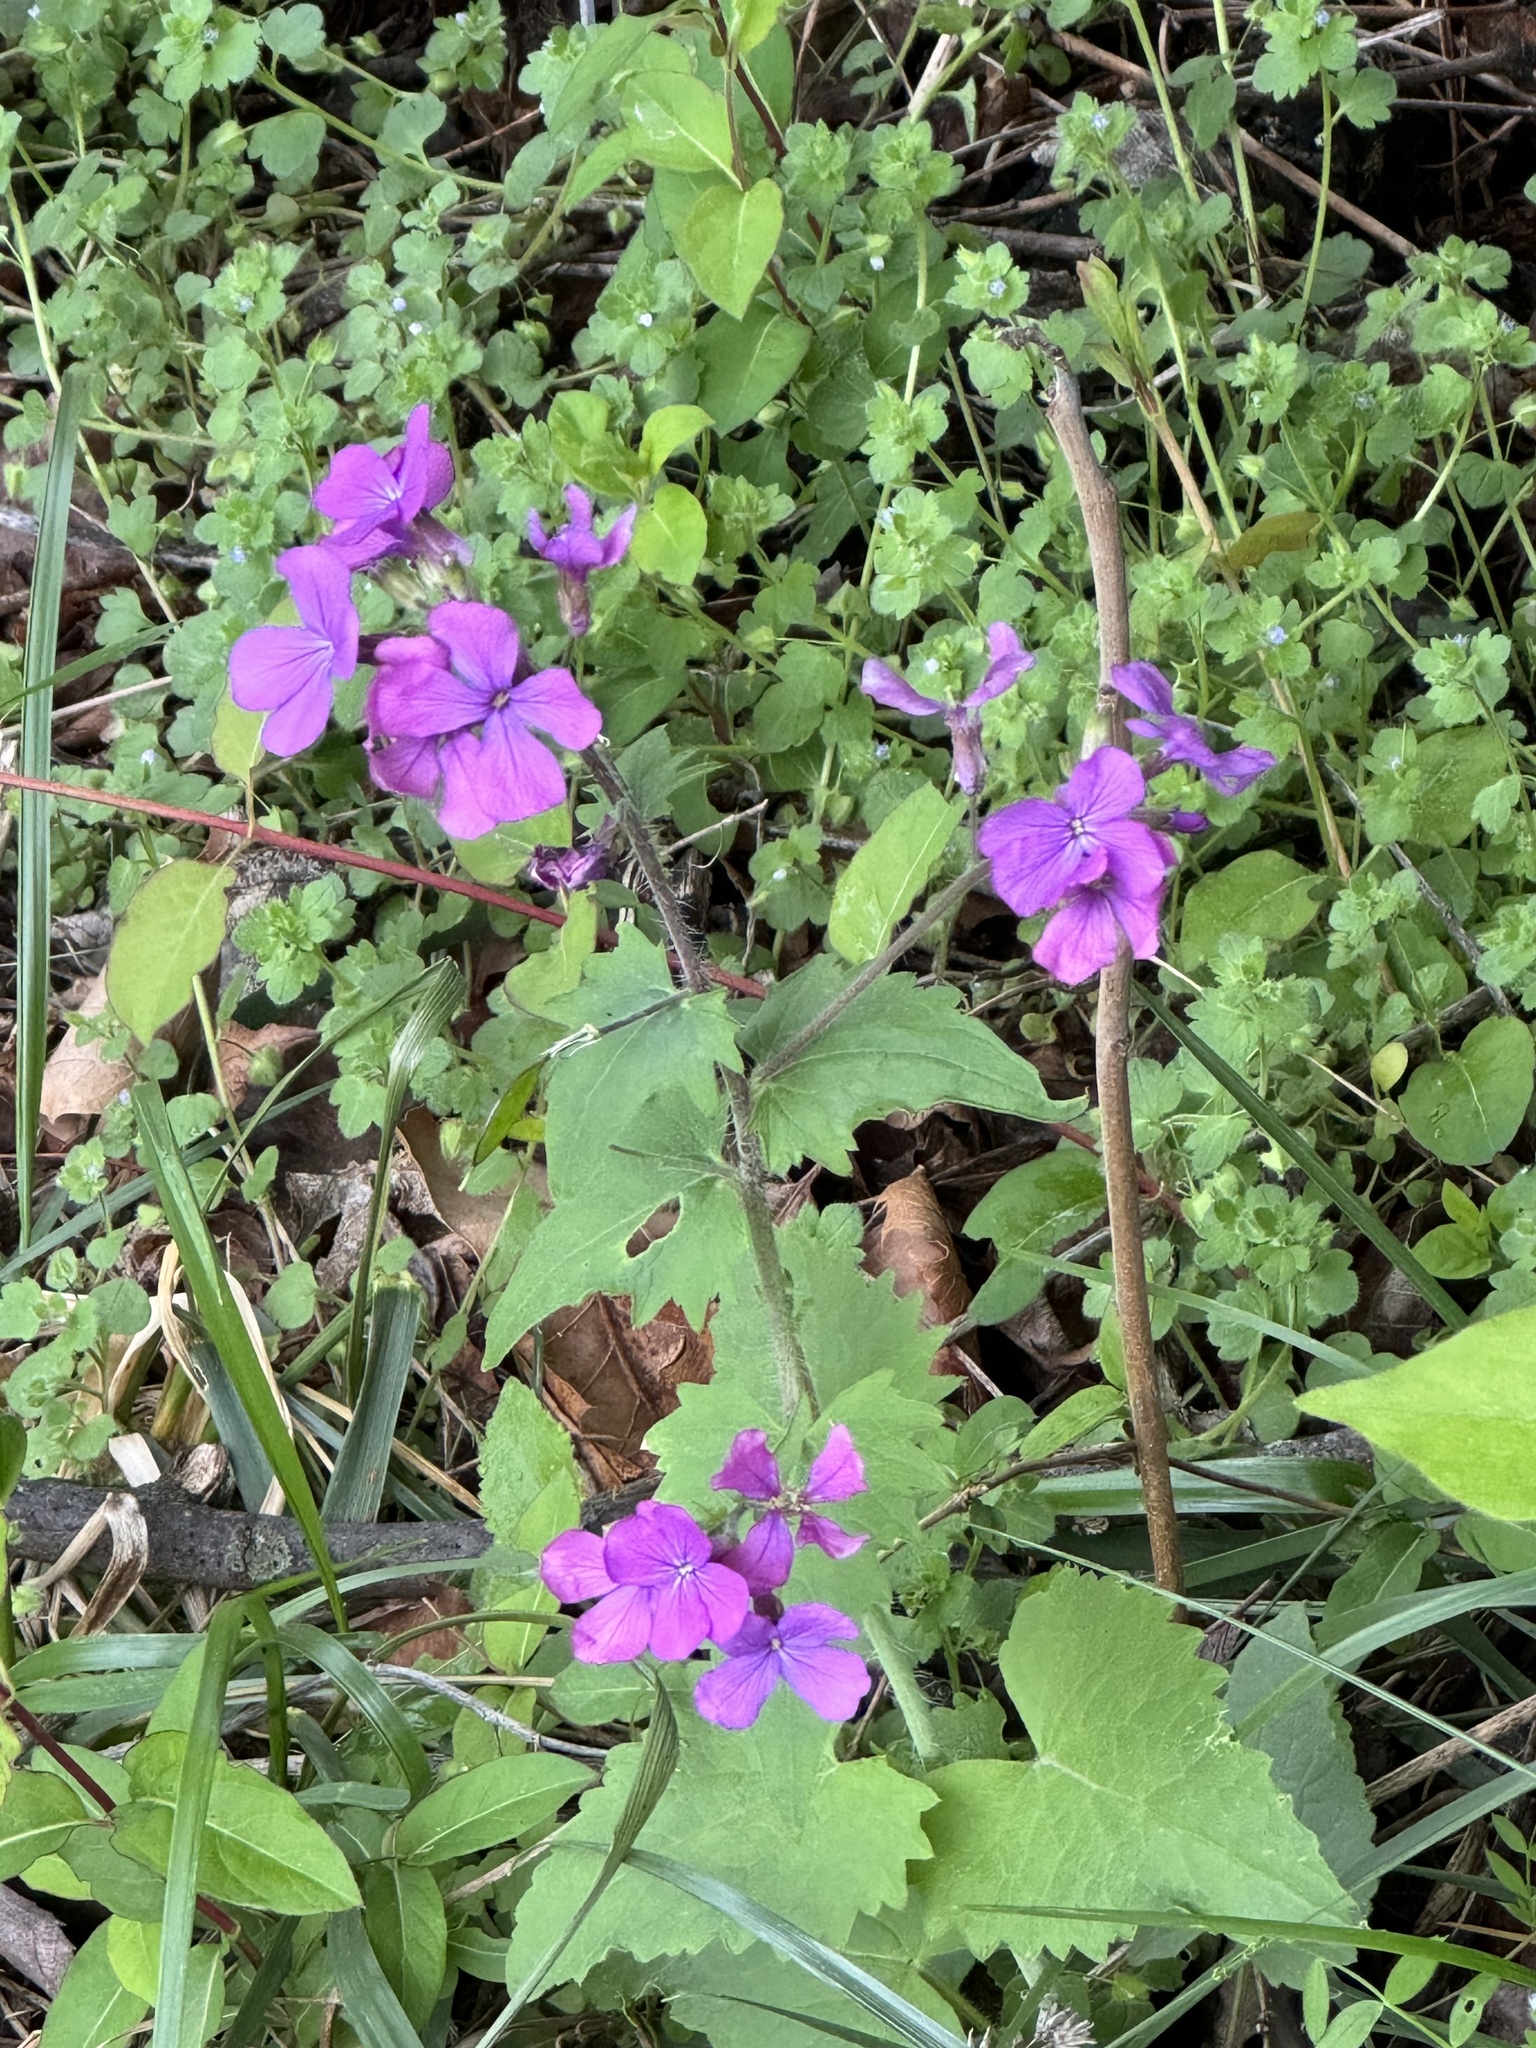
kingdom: Plantae
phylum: Tracheophyta
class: Magnoliopsida
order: Brassicales
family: Brassicaceae
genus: Lunaria
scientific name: Lunaria annua
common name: Honesty
